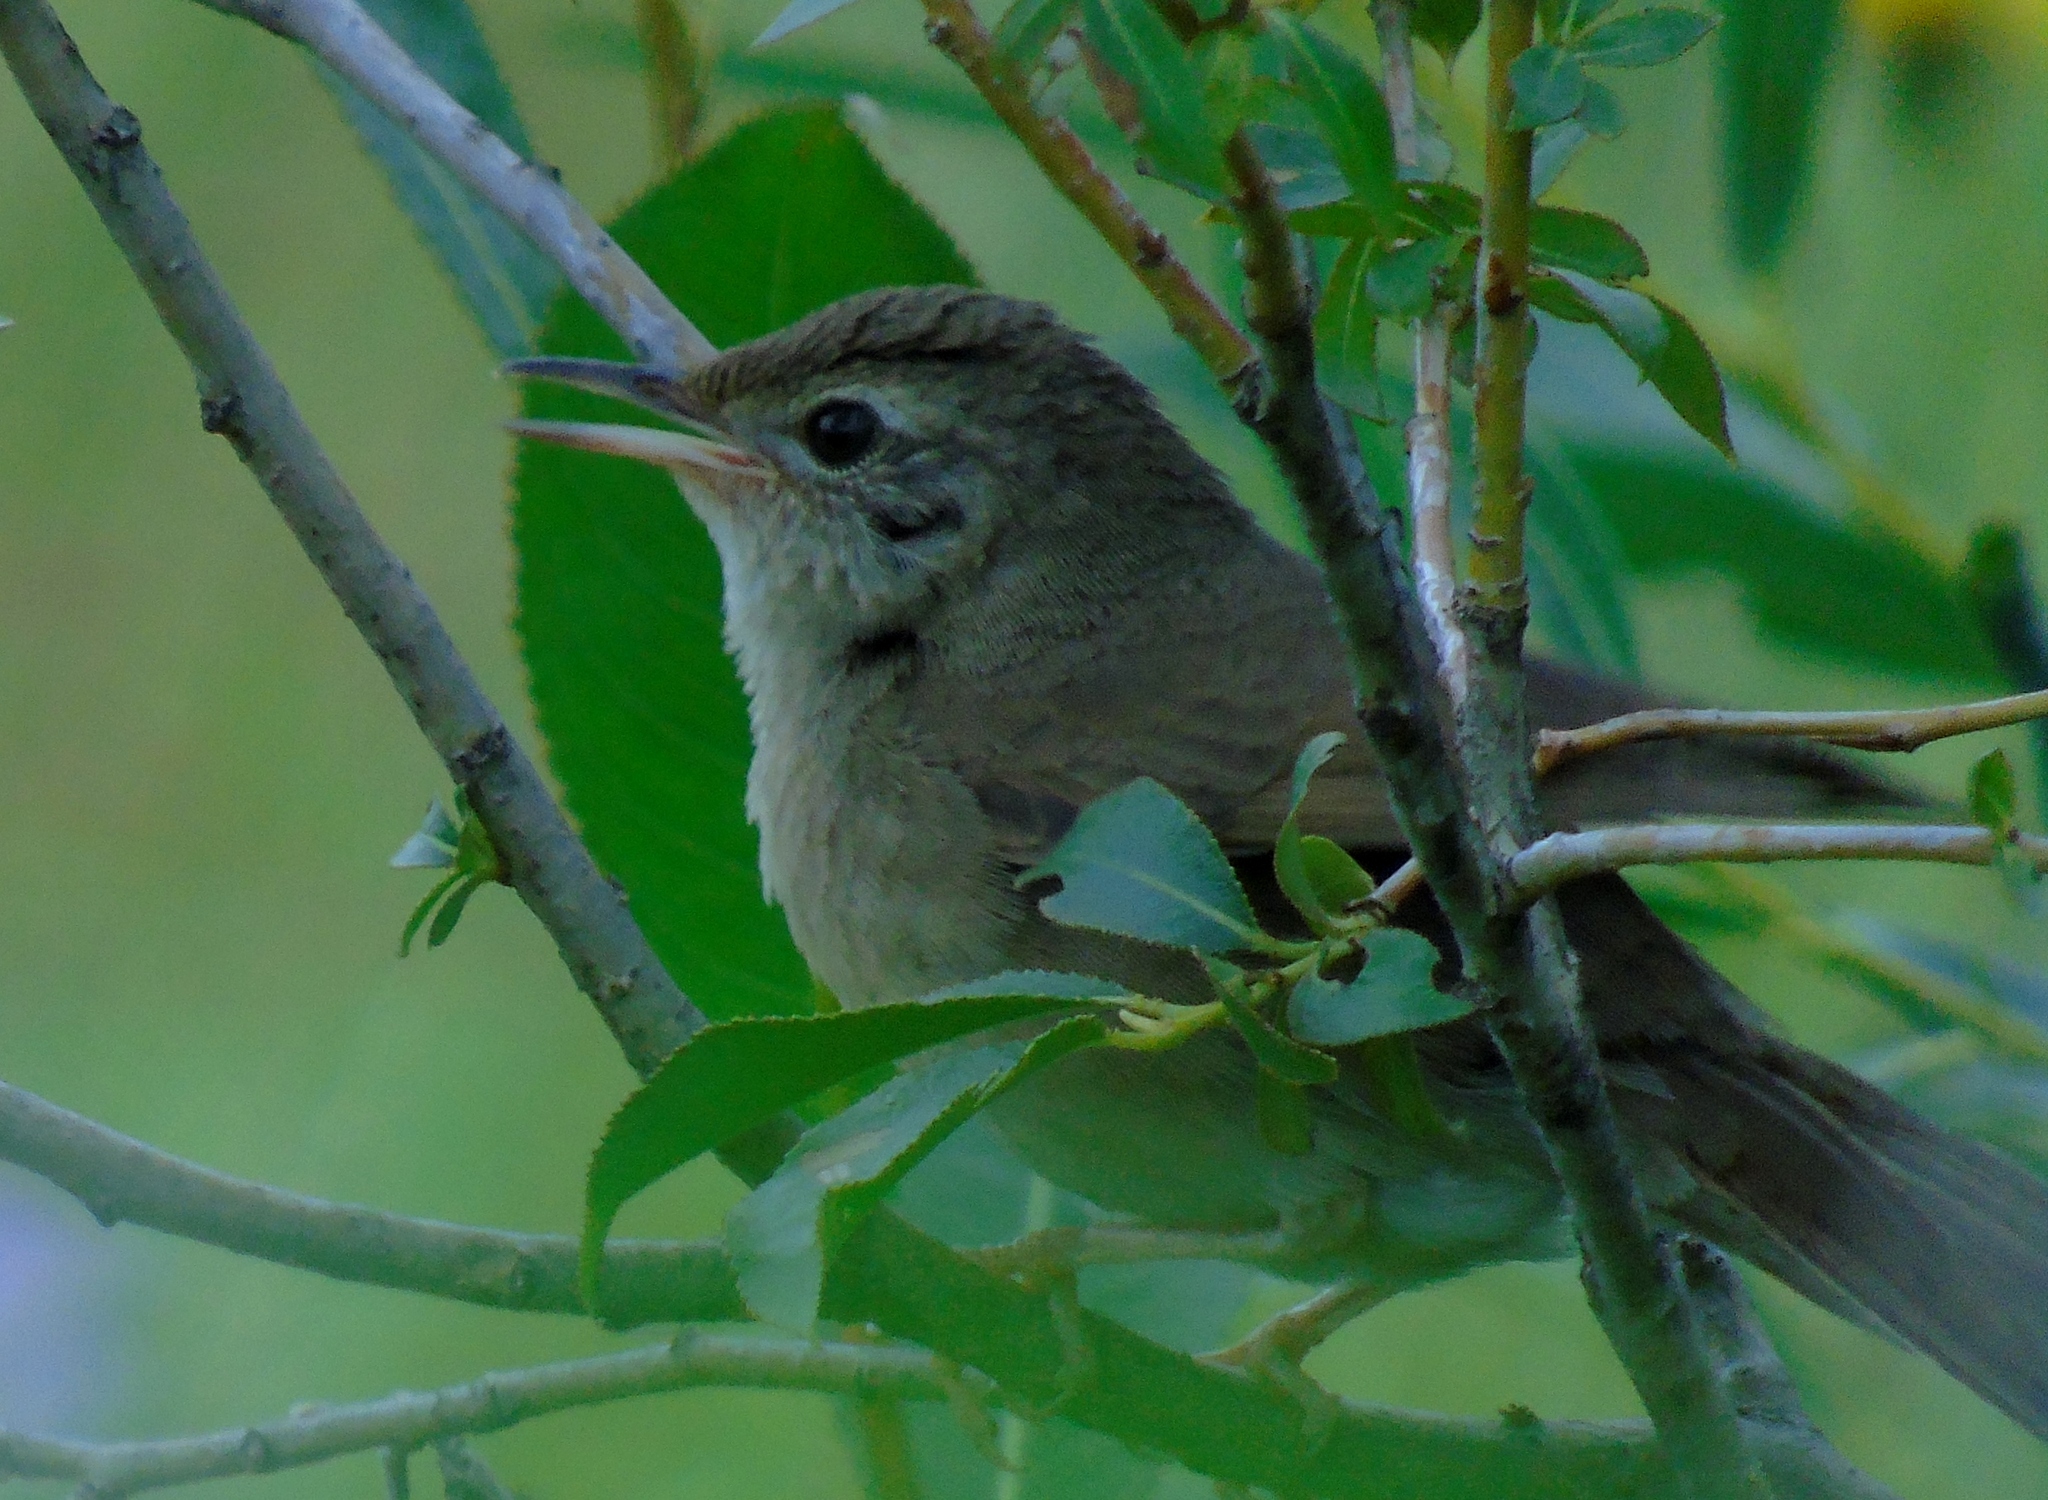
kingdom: Animalia
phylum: Chordata
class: Aves
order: Passeriformes
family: Locustellidae
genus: Locustella
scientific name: Locustella tacsanowskia
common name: Chinese bush warbler
